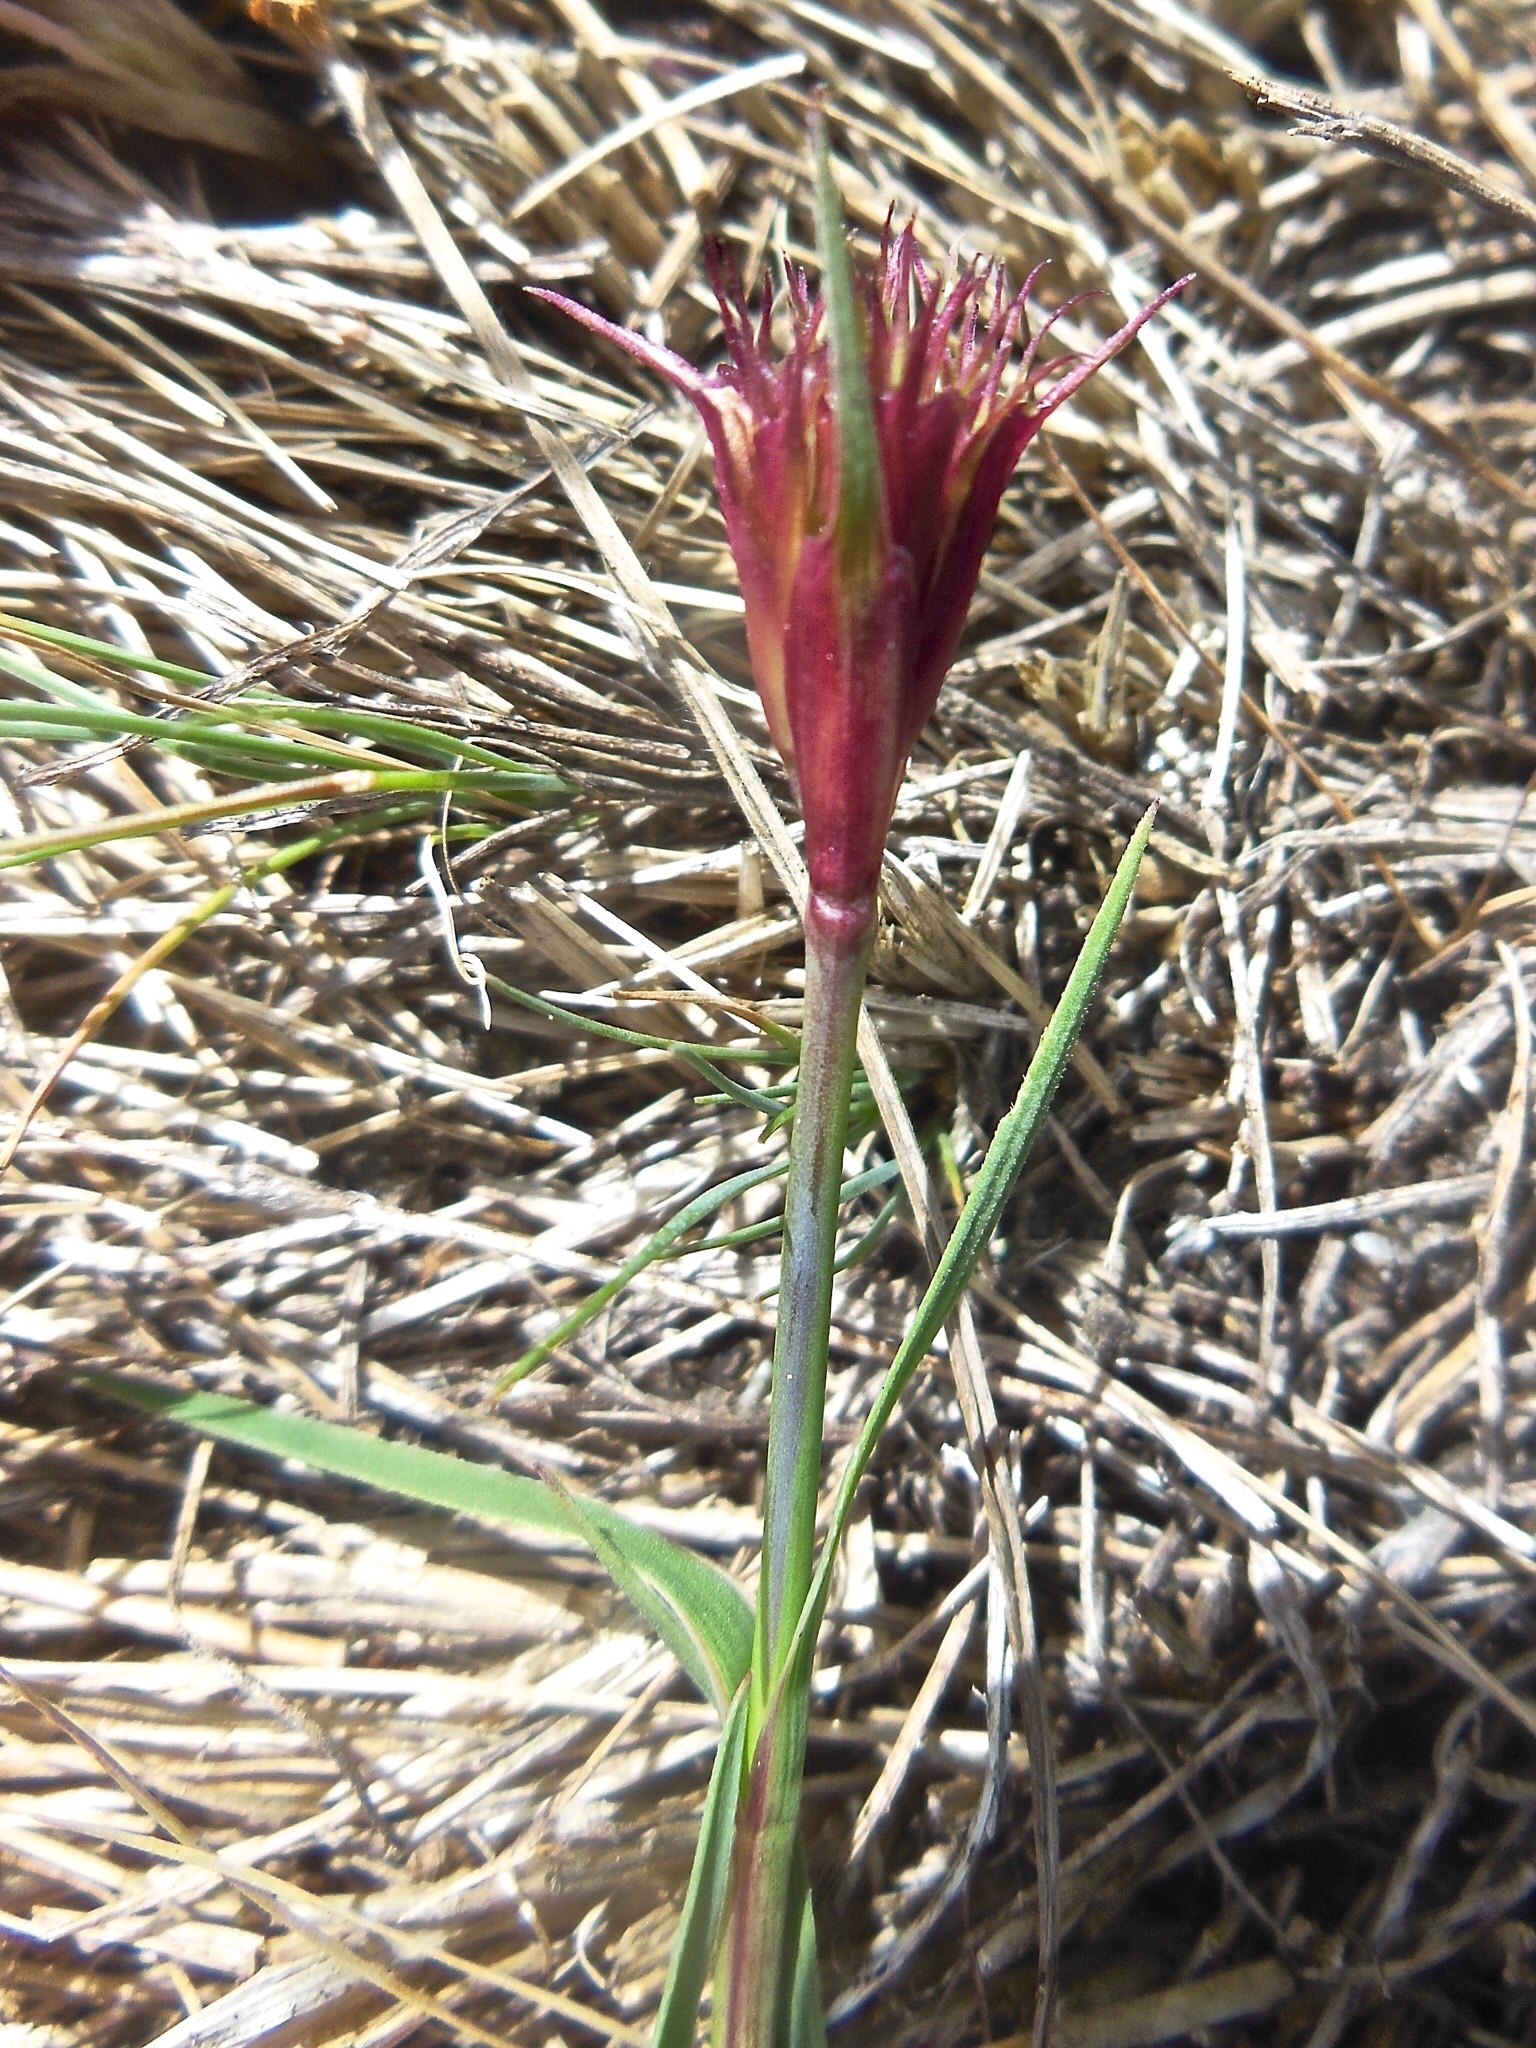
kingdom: Plantae
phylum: Tracheophyta
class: Magnoliopsida
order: Caryophyllales
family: Caryophyllaceae
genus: Dianthus
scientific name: Dianthus carthusianorum
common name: Carthusian pink
